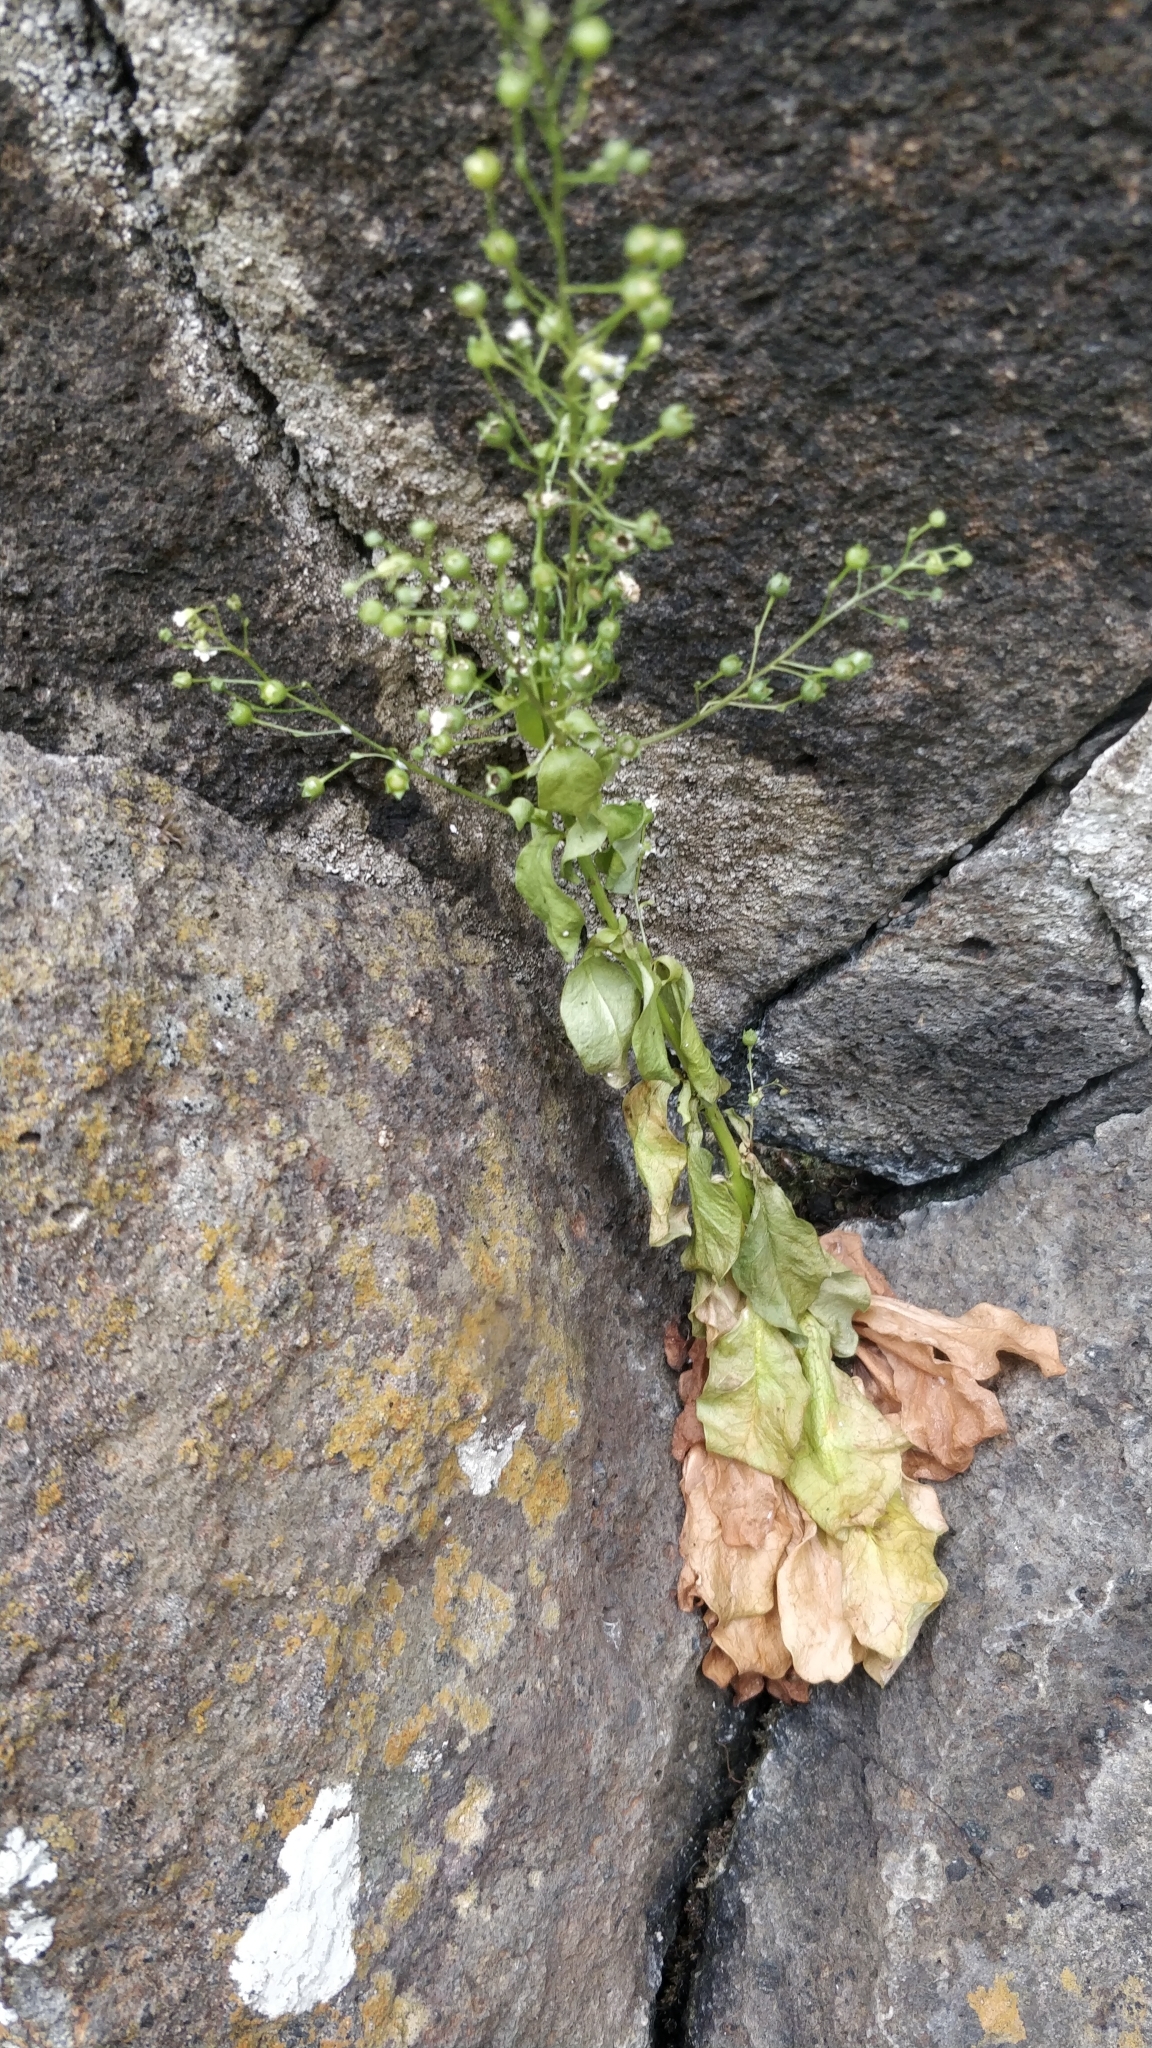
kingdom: Plantae
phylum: Tracheophyta
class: Magnoliopsida
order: Ericales
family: Primulaceae
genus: Samolus
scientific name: Samolus valerandi
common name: Brookweed
